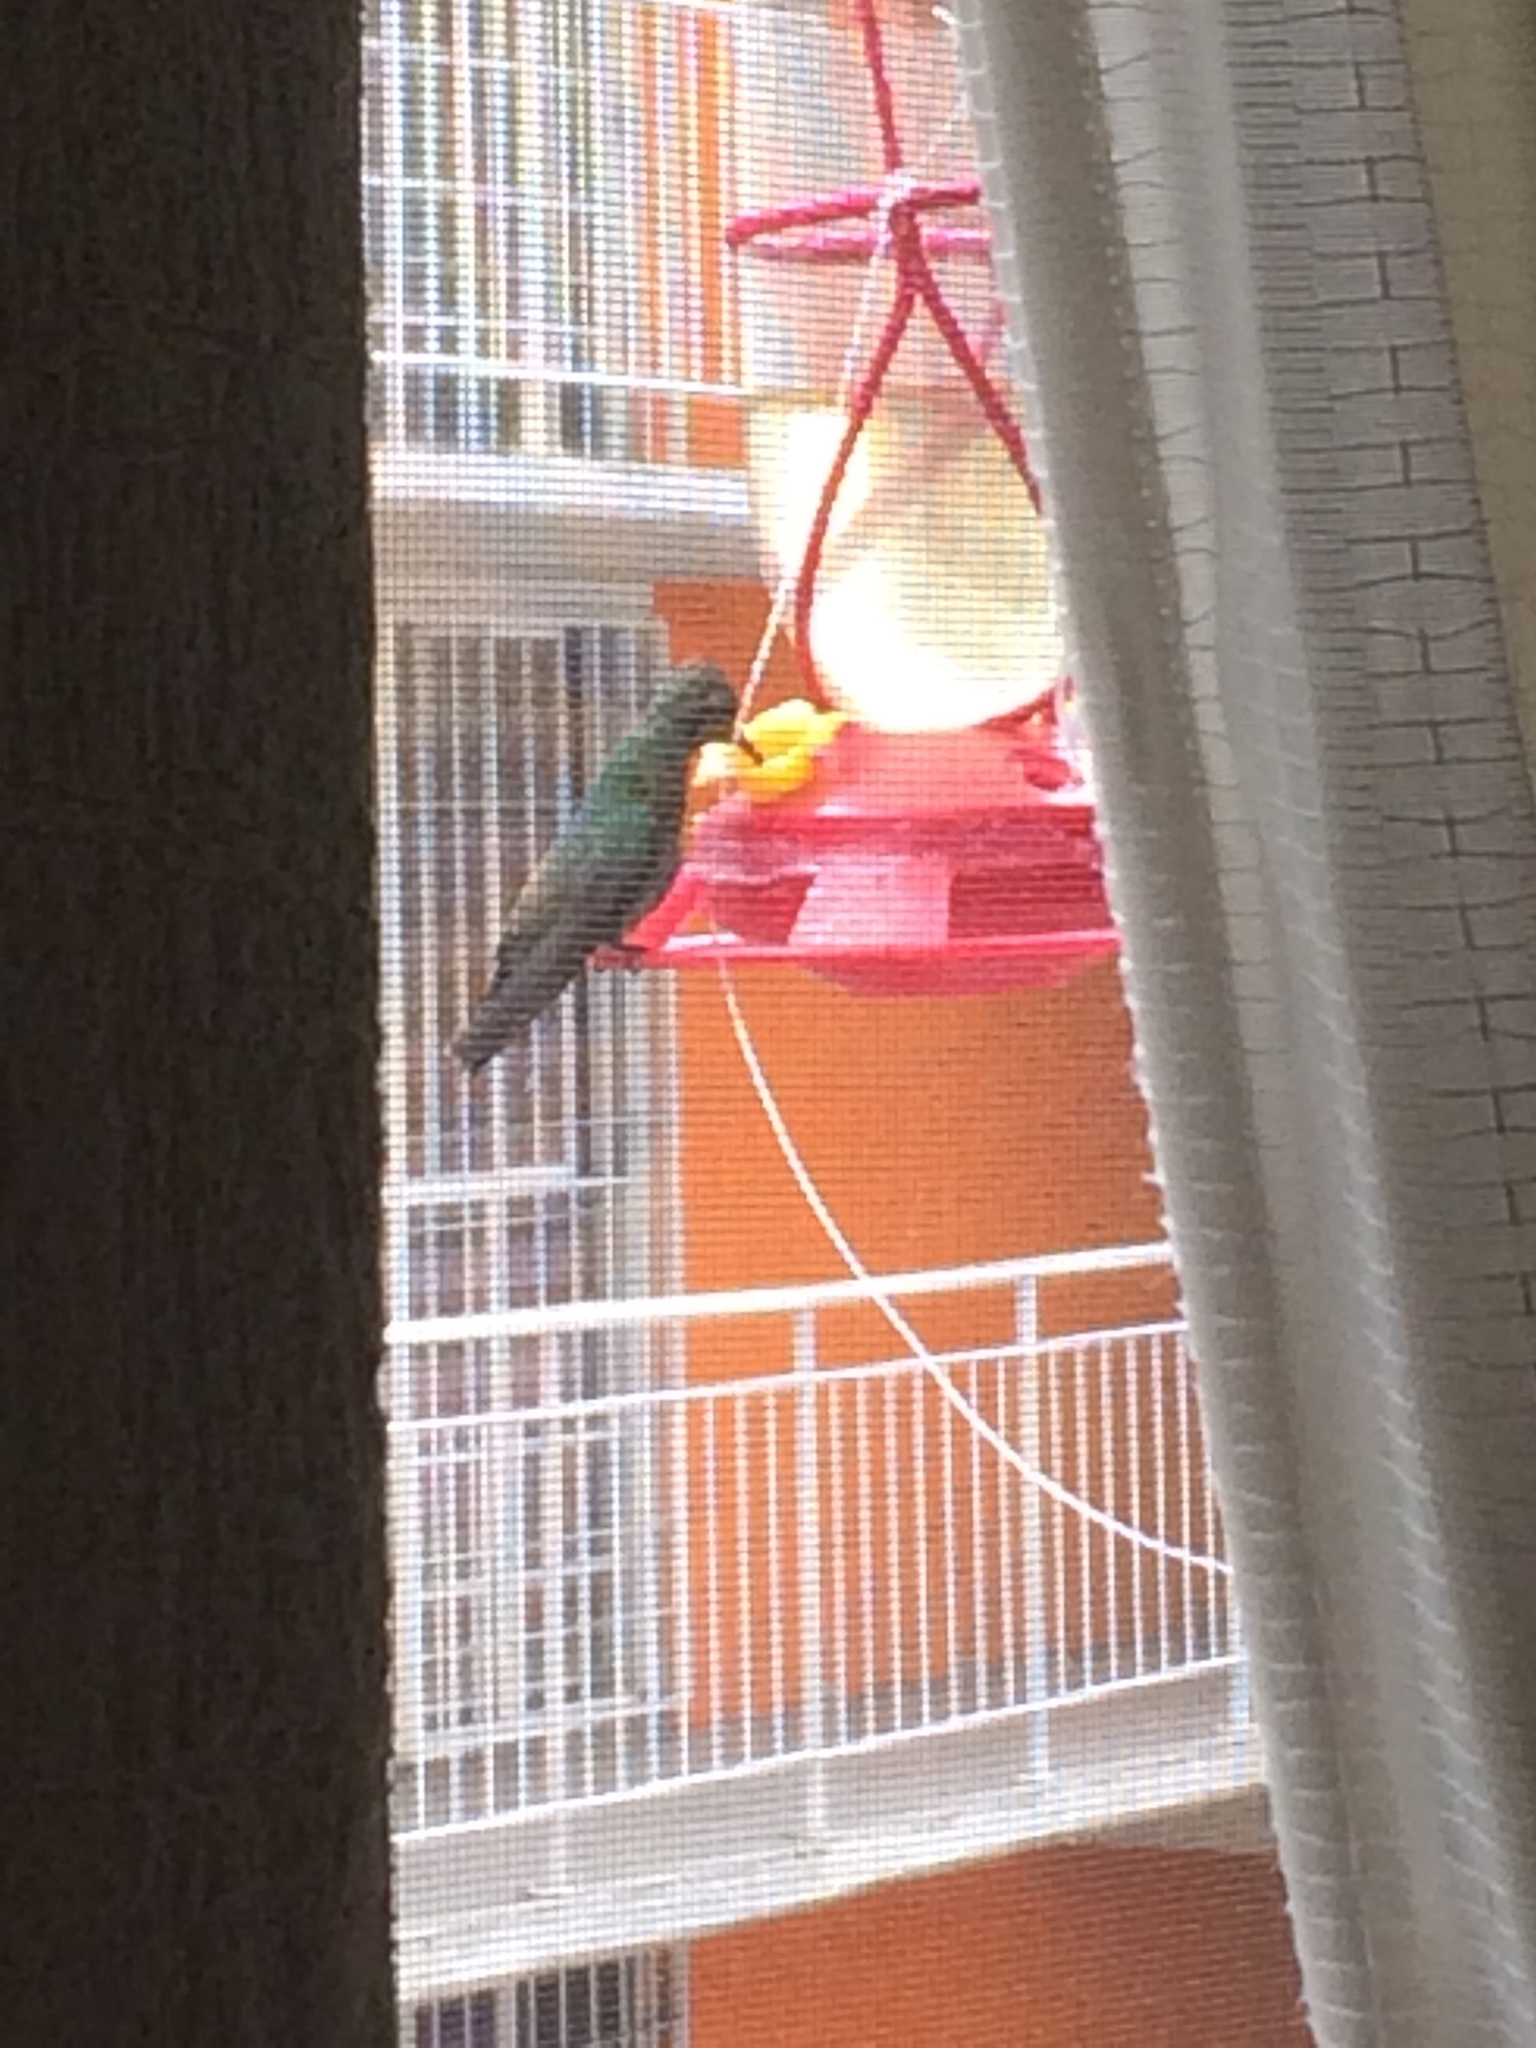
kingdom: Animalia
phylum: Chordata
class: Aves
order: Apodiformes
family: Trochilidae
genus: Cynanthus
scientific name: Cynanthus latirostris
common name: Broad-billed hummingbird
